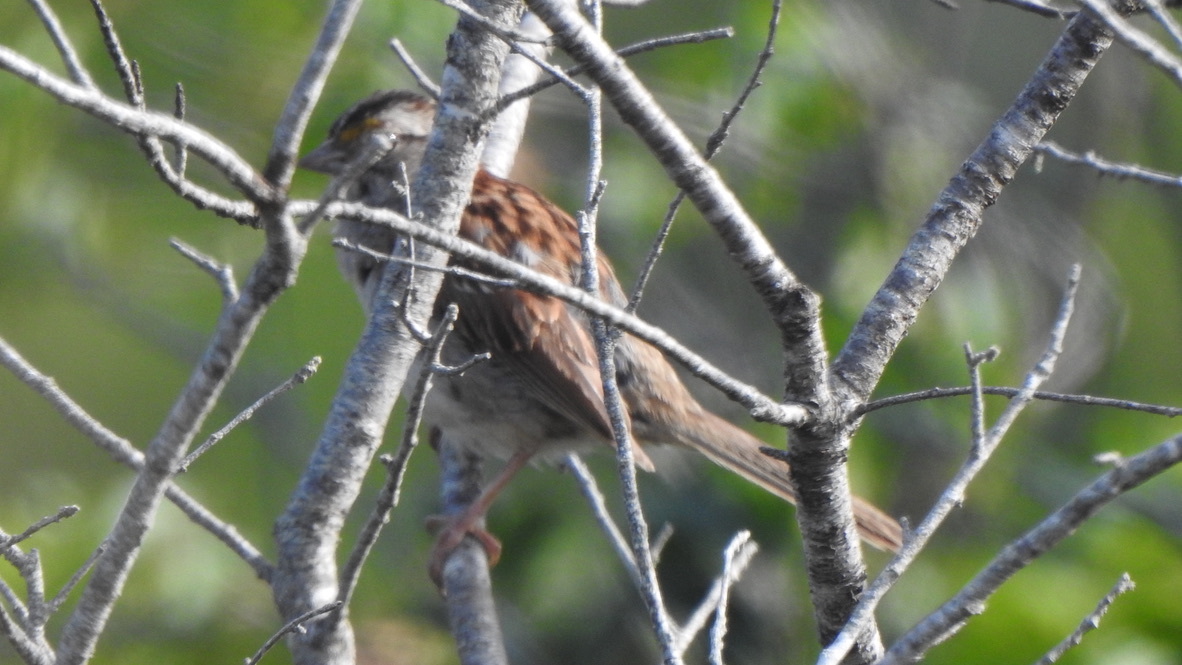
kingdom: Animalia
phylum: Chordata
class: Aves
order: Passeriformes
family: Passerellidae
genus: Zonotrichia
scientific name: Zonotrichia albicollis
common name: White-throated sparrow
